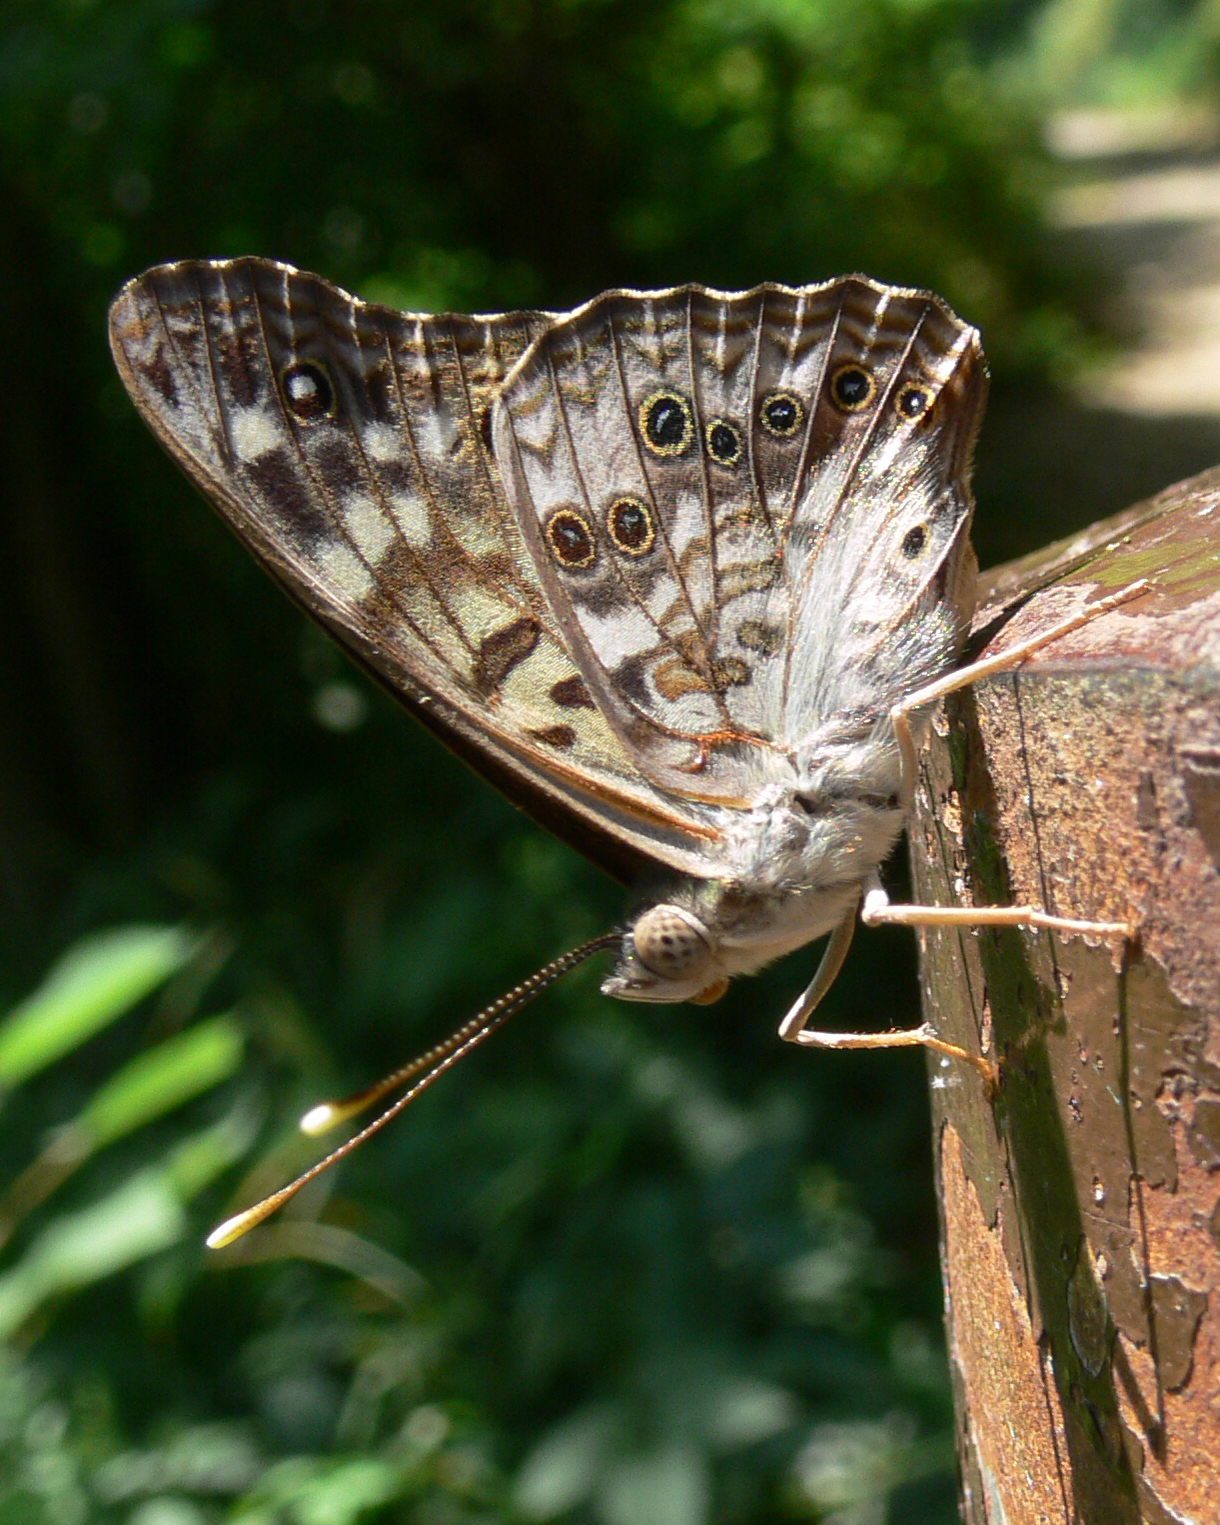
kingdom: Animalia
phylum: Arthropoda
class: Insecta
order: Lepidoptera
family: Nymphalidae
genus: Asterocampa
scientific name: Asterocampa celtis
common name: Hackberry emperor
